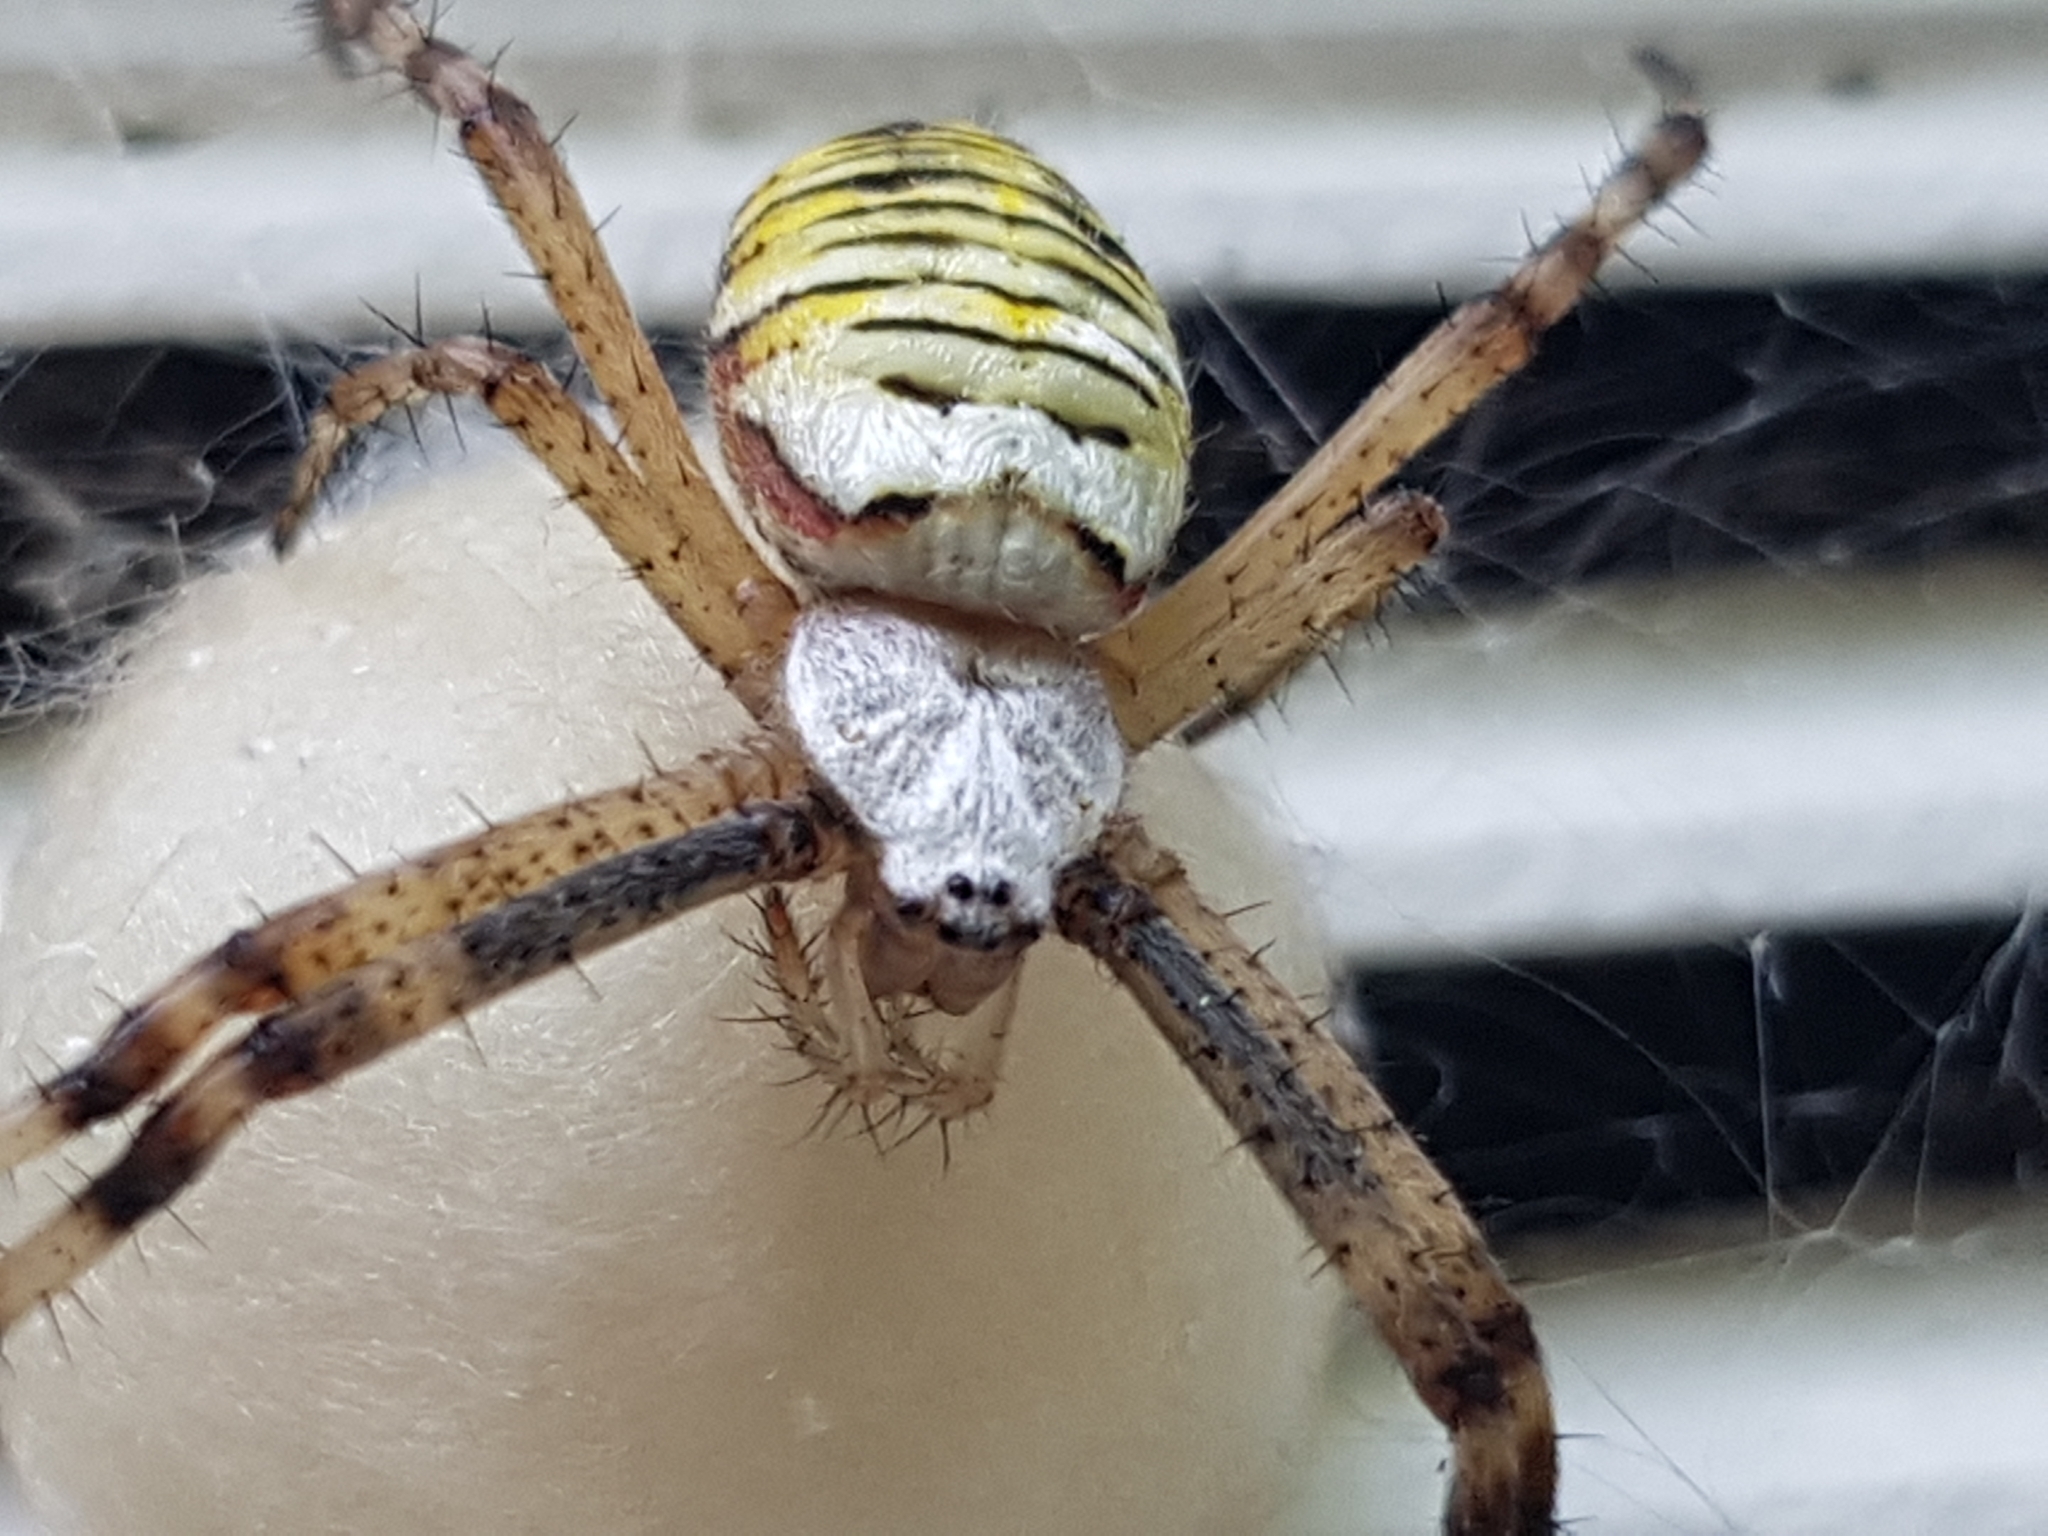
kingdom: Animalia
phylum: Arthropoda
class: Arachnida
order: Araneae
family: Araneidae
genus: Argiope
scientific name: Argiope bruennichi
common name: Wasp spider
